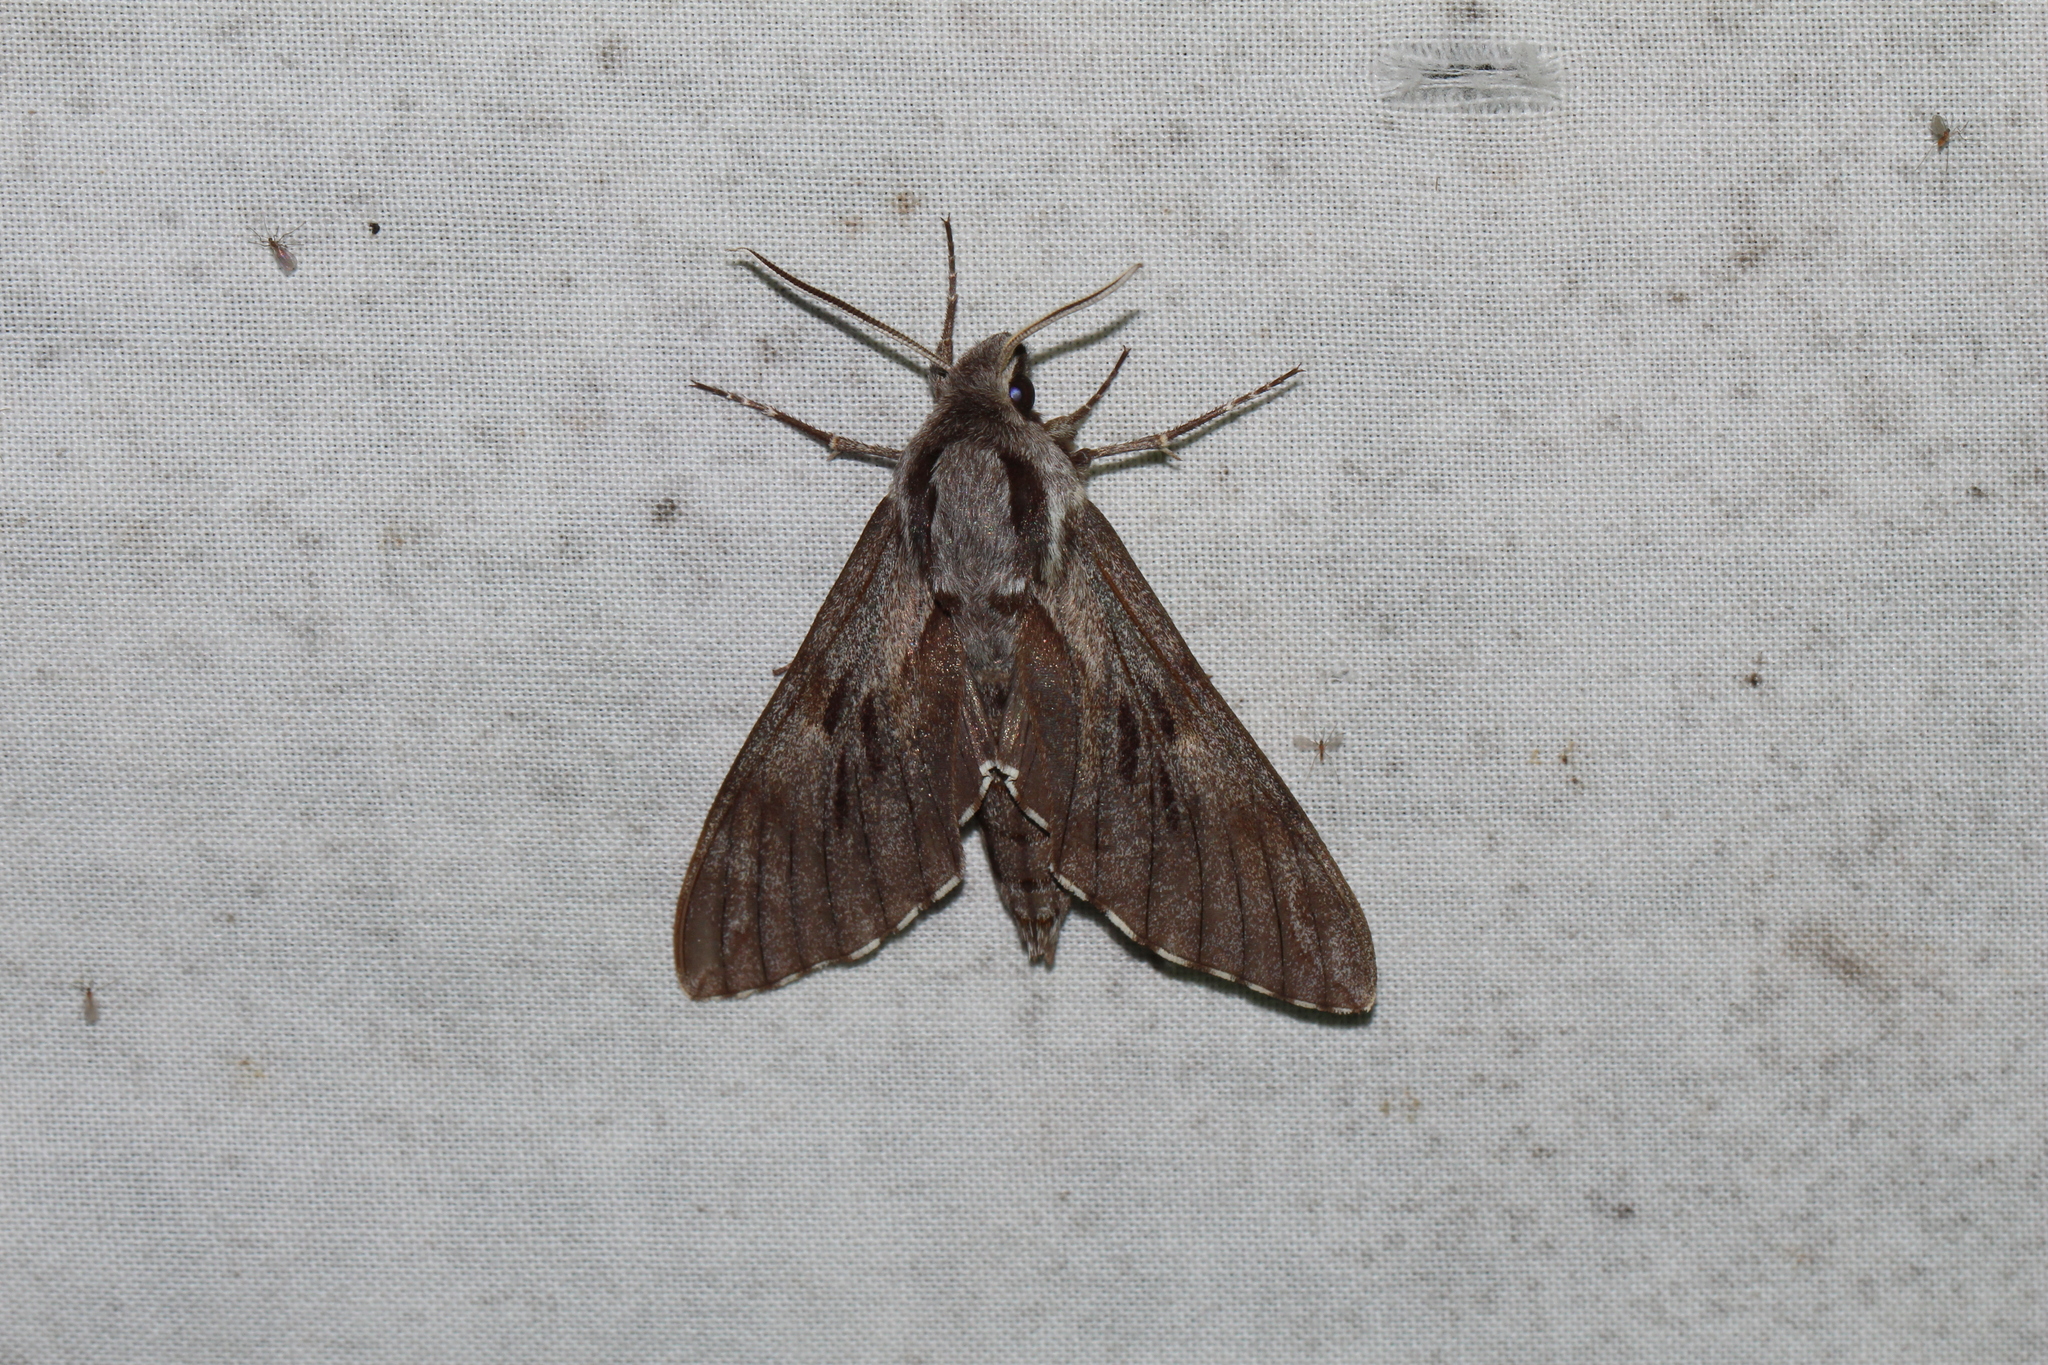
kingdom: Animalia
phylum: Arthropoda
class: Insecta
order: Lepidoptera
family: Sphingidae
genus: Sphinx
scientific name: Sphinx pinastri
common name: Pine hawk-moth
